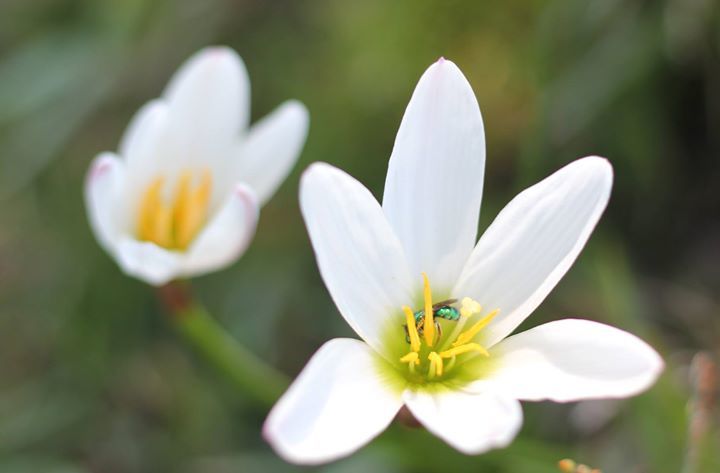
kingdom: Plantae
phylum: Tracheophyta
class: Liliopsida
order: Asparagales
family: Amaryllidaceae
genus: Zephyranthes
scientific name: Zephyranthes candida
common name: Autumn zephyrlily
